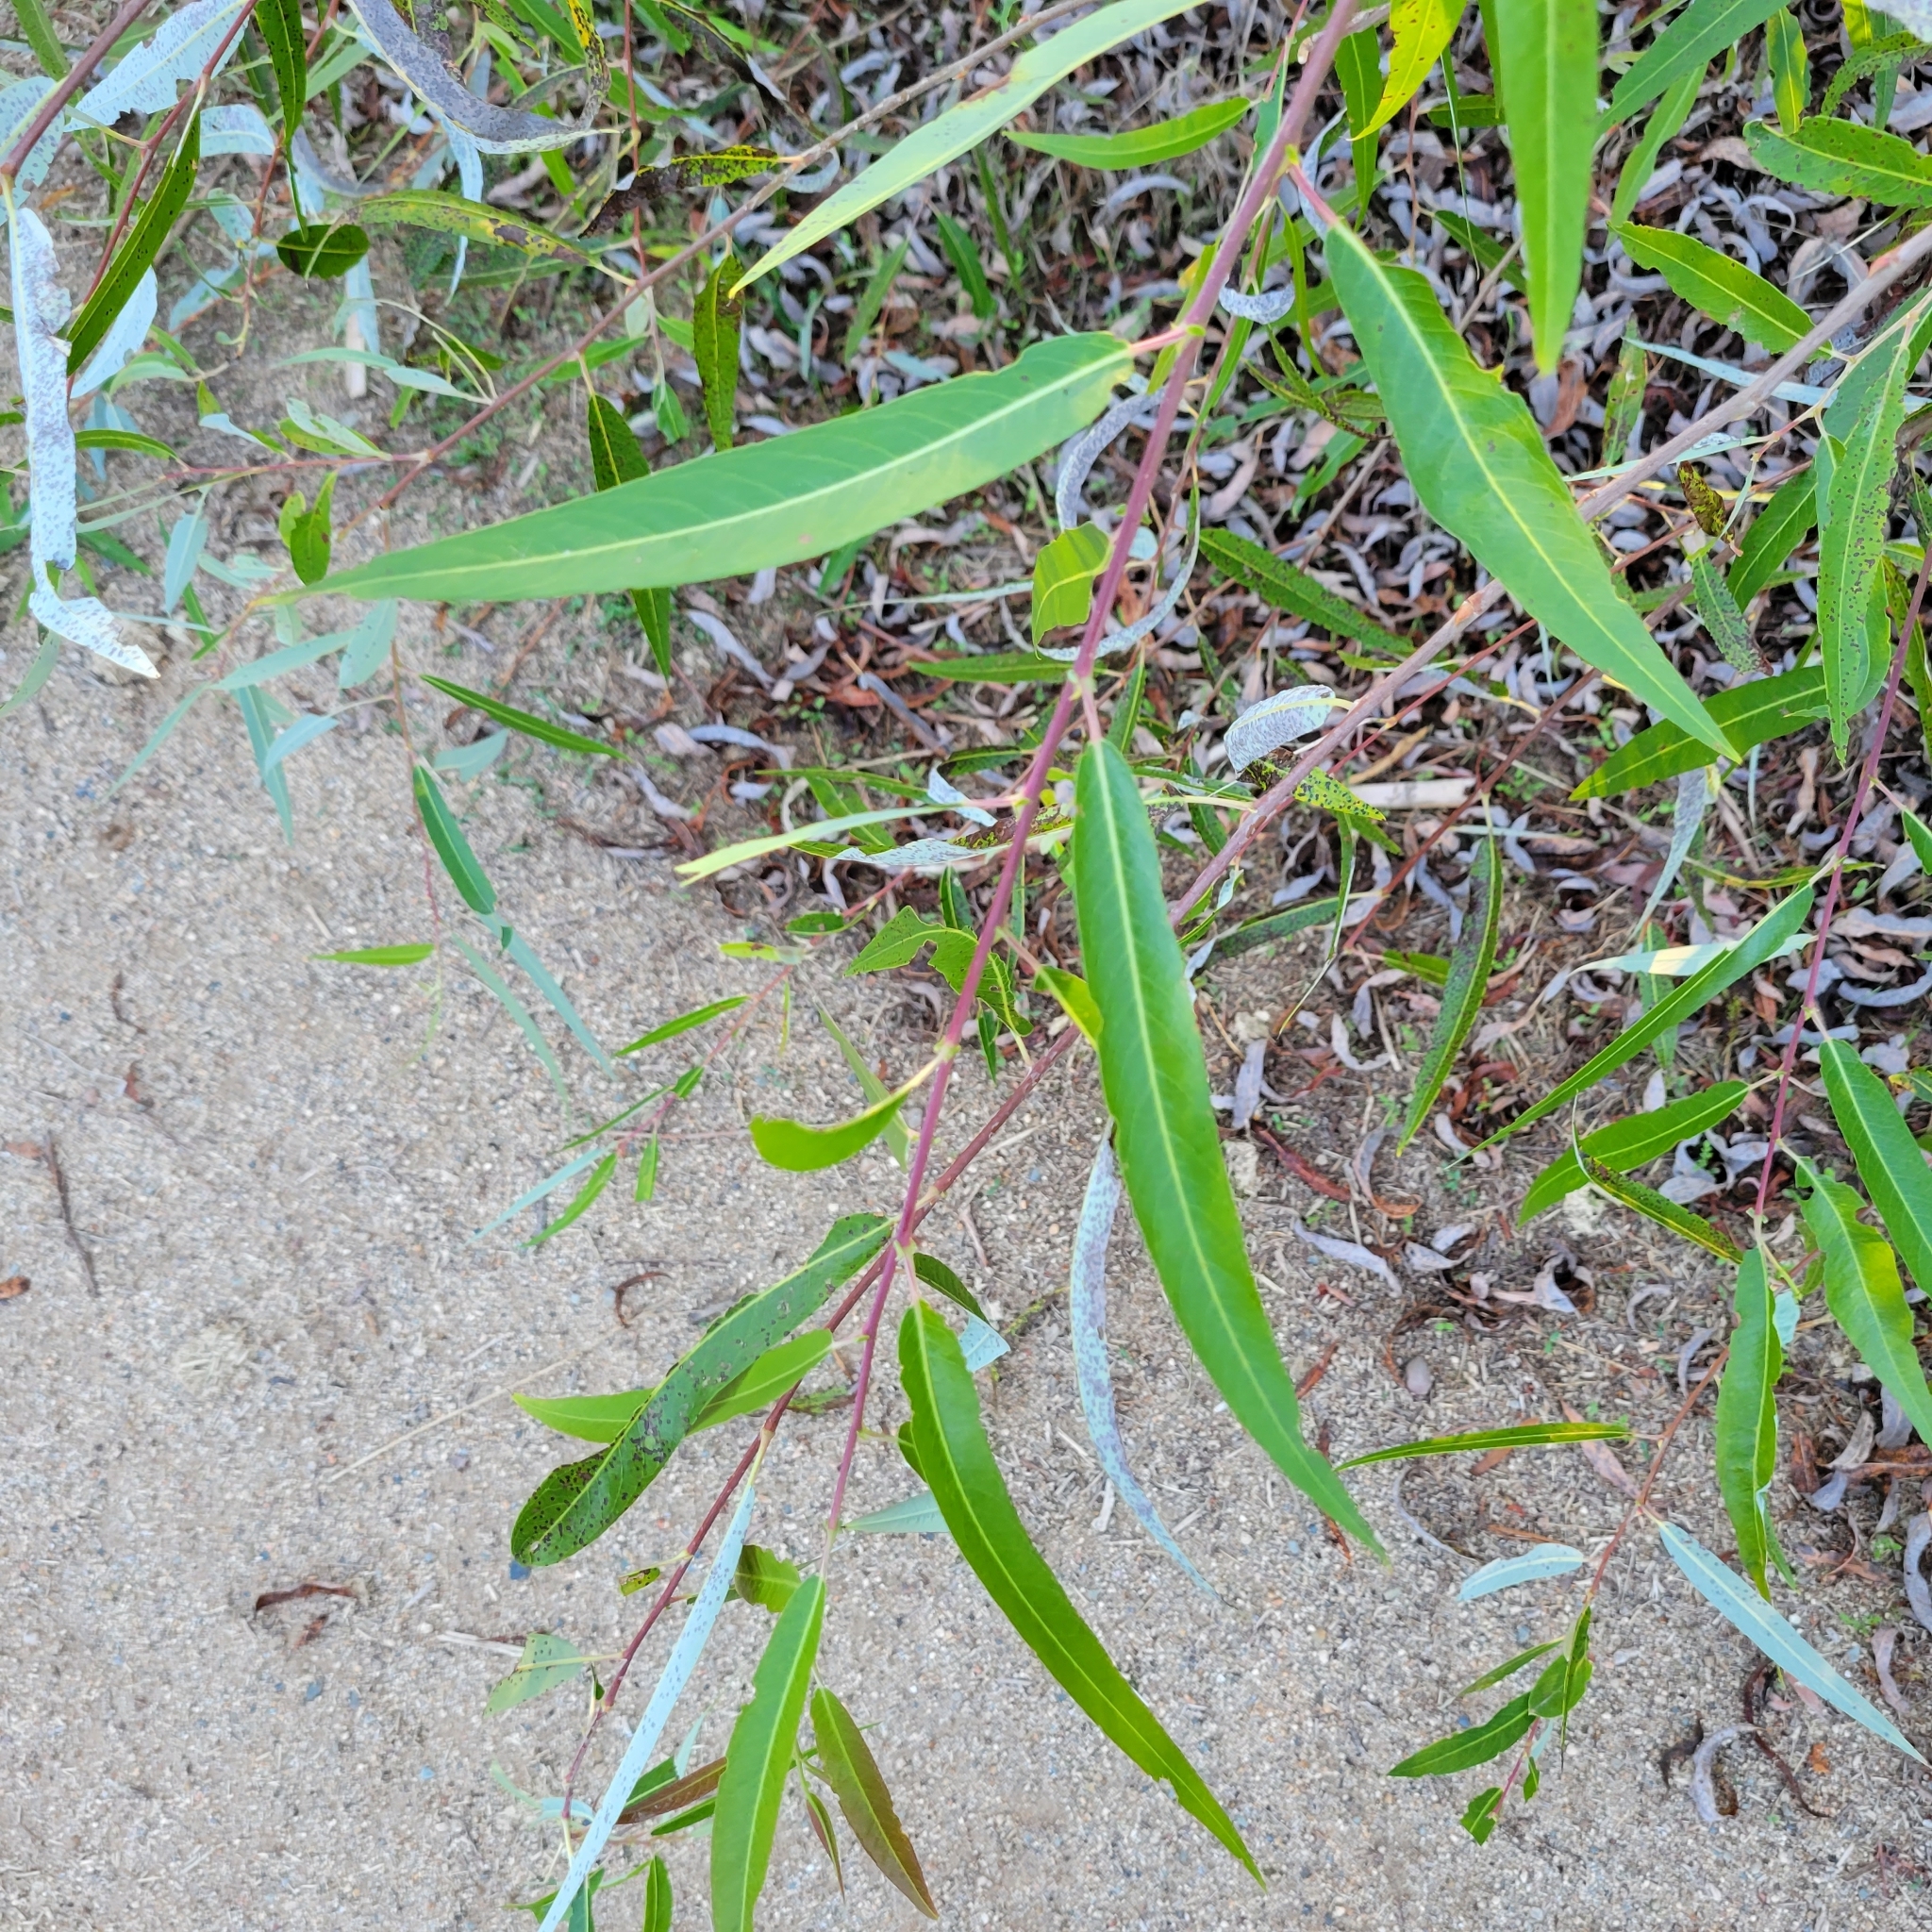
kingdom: Plantae
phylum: Tracheophyta
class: Magnoliopsida
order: Malpighiales
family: Salicaceae
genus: Salix
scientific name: Salix laevigata
